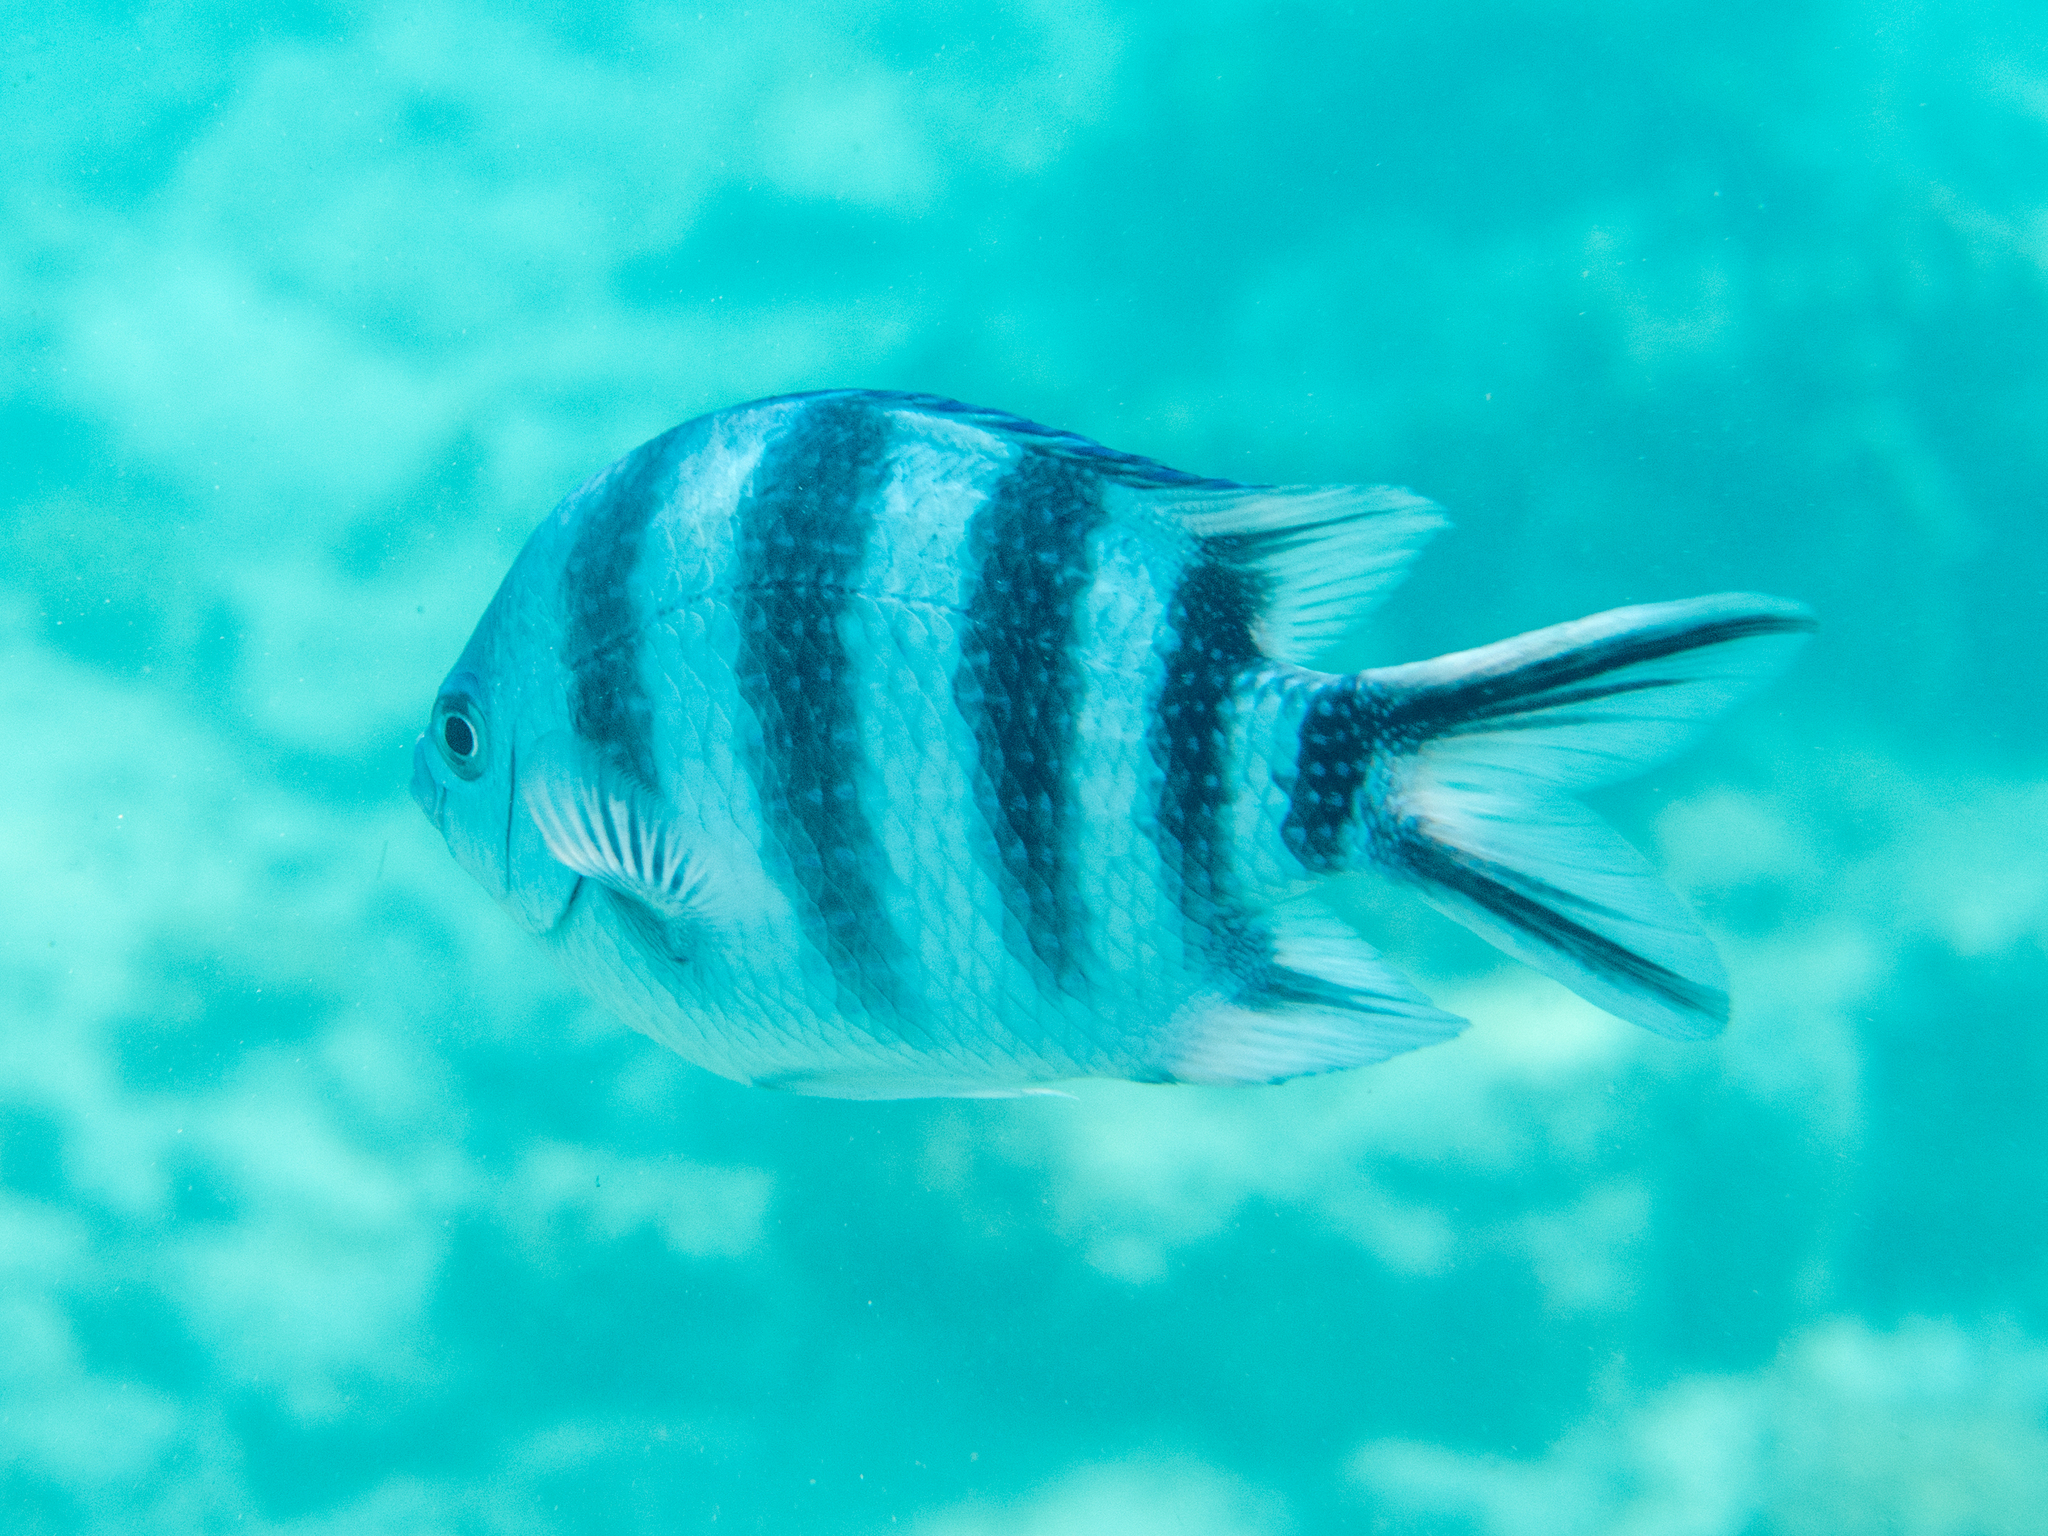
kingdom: Animalia
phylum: Chordata
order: Perciformes
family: Pomacentridae
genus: Abudefduf
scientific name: Abudefduf sexfasciatus
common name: Scissortail sergeant
